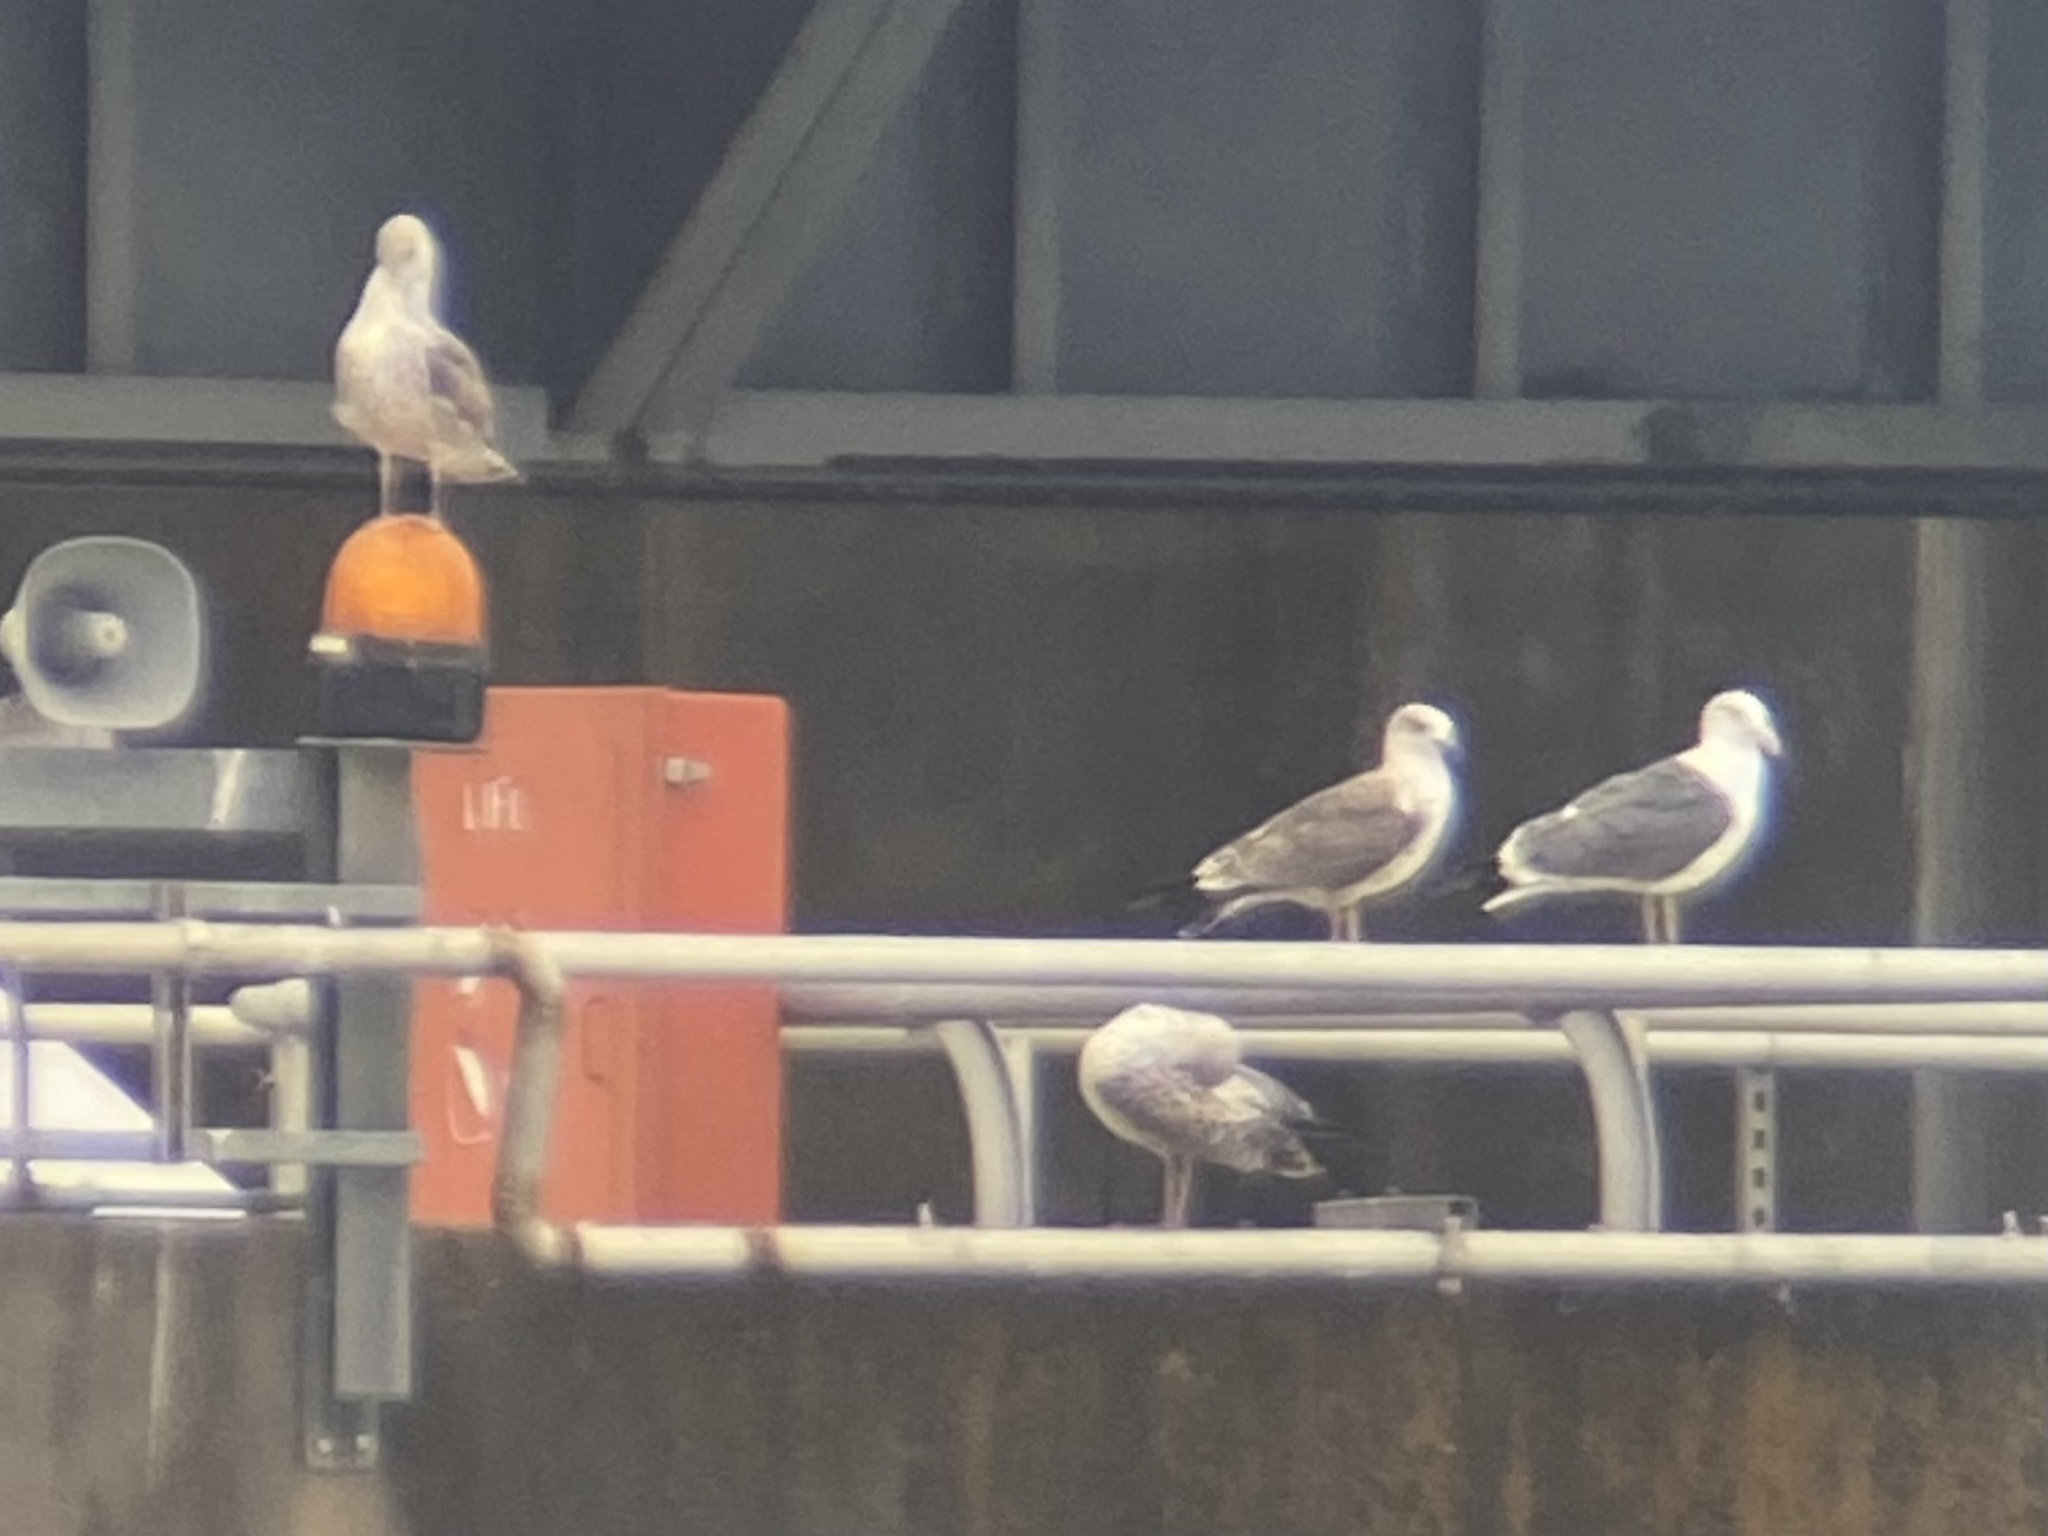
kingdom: Animalia
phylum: Chordata
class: Aves
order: Charadriiformes
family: Laridae
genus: Larus
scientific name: Larus fuscus
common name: Lesser black-backed gull
